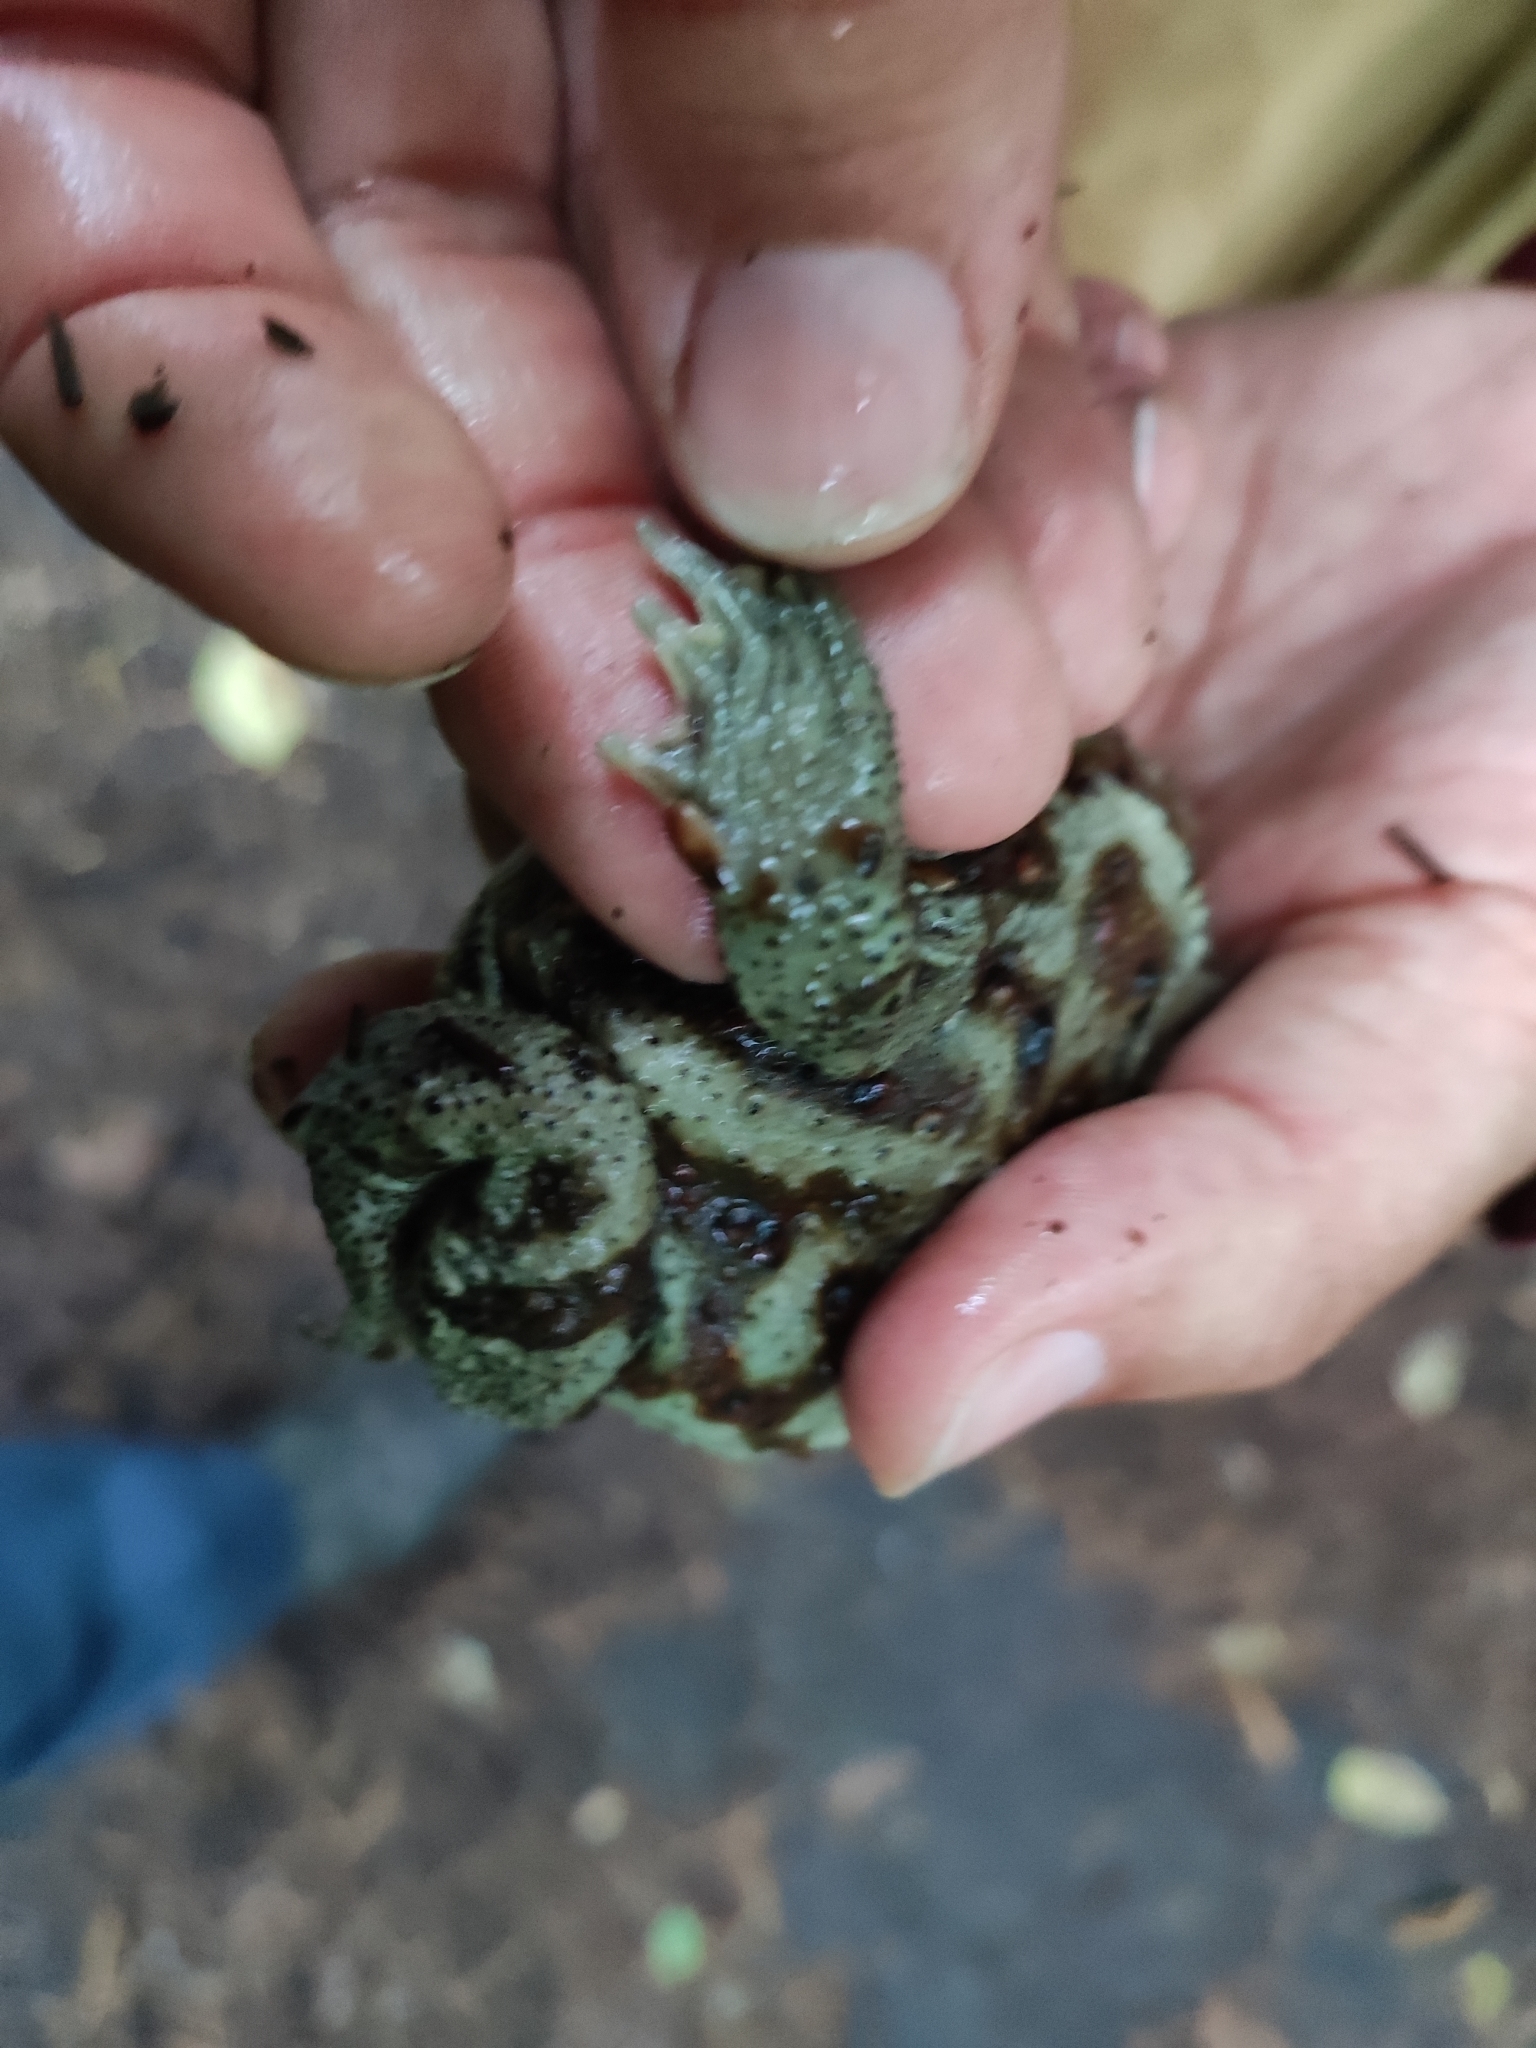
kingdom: Animalia
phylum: Chordata
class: Amphibia
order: Anura
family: Bufonidae
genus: Bufo
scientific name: Bufo gargarizans
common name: Asiatic toad
